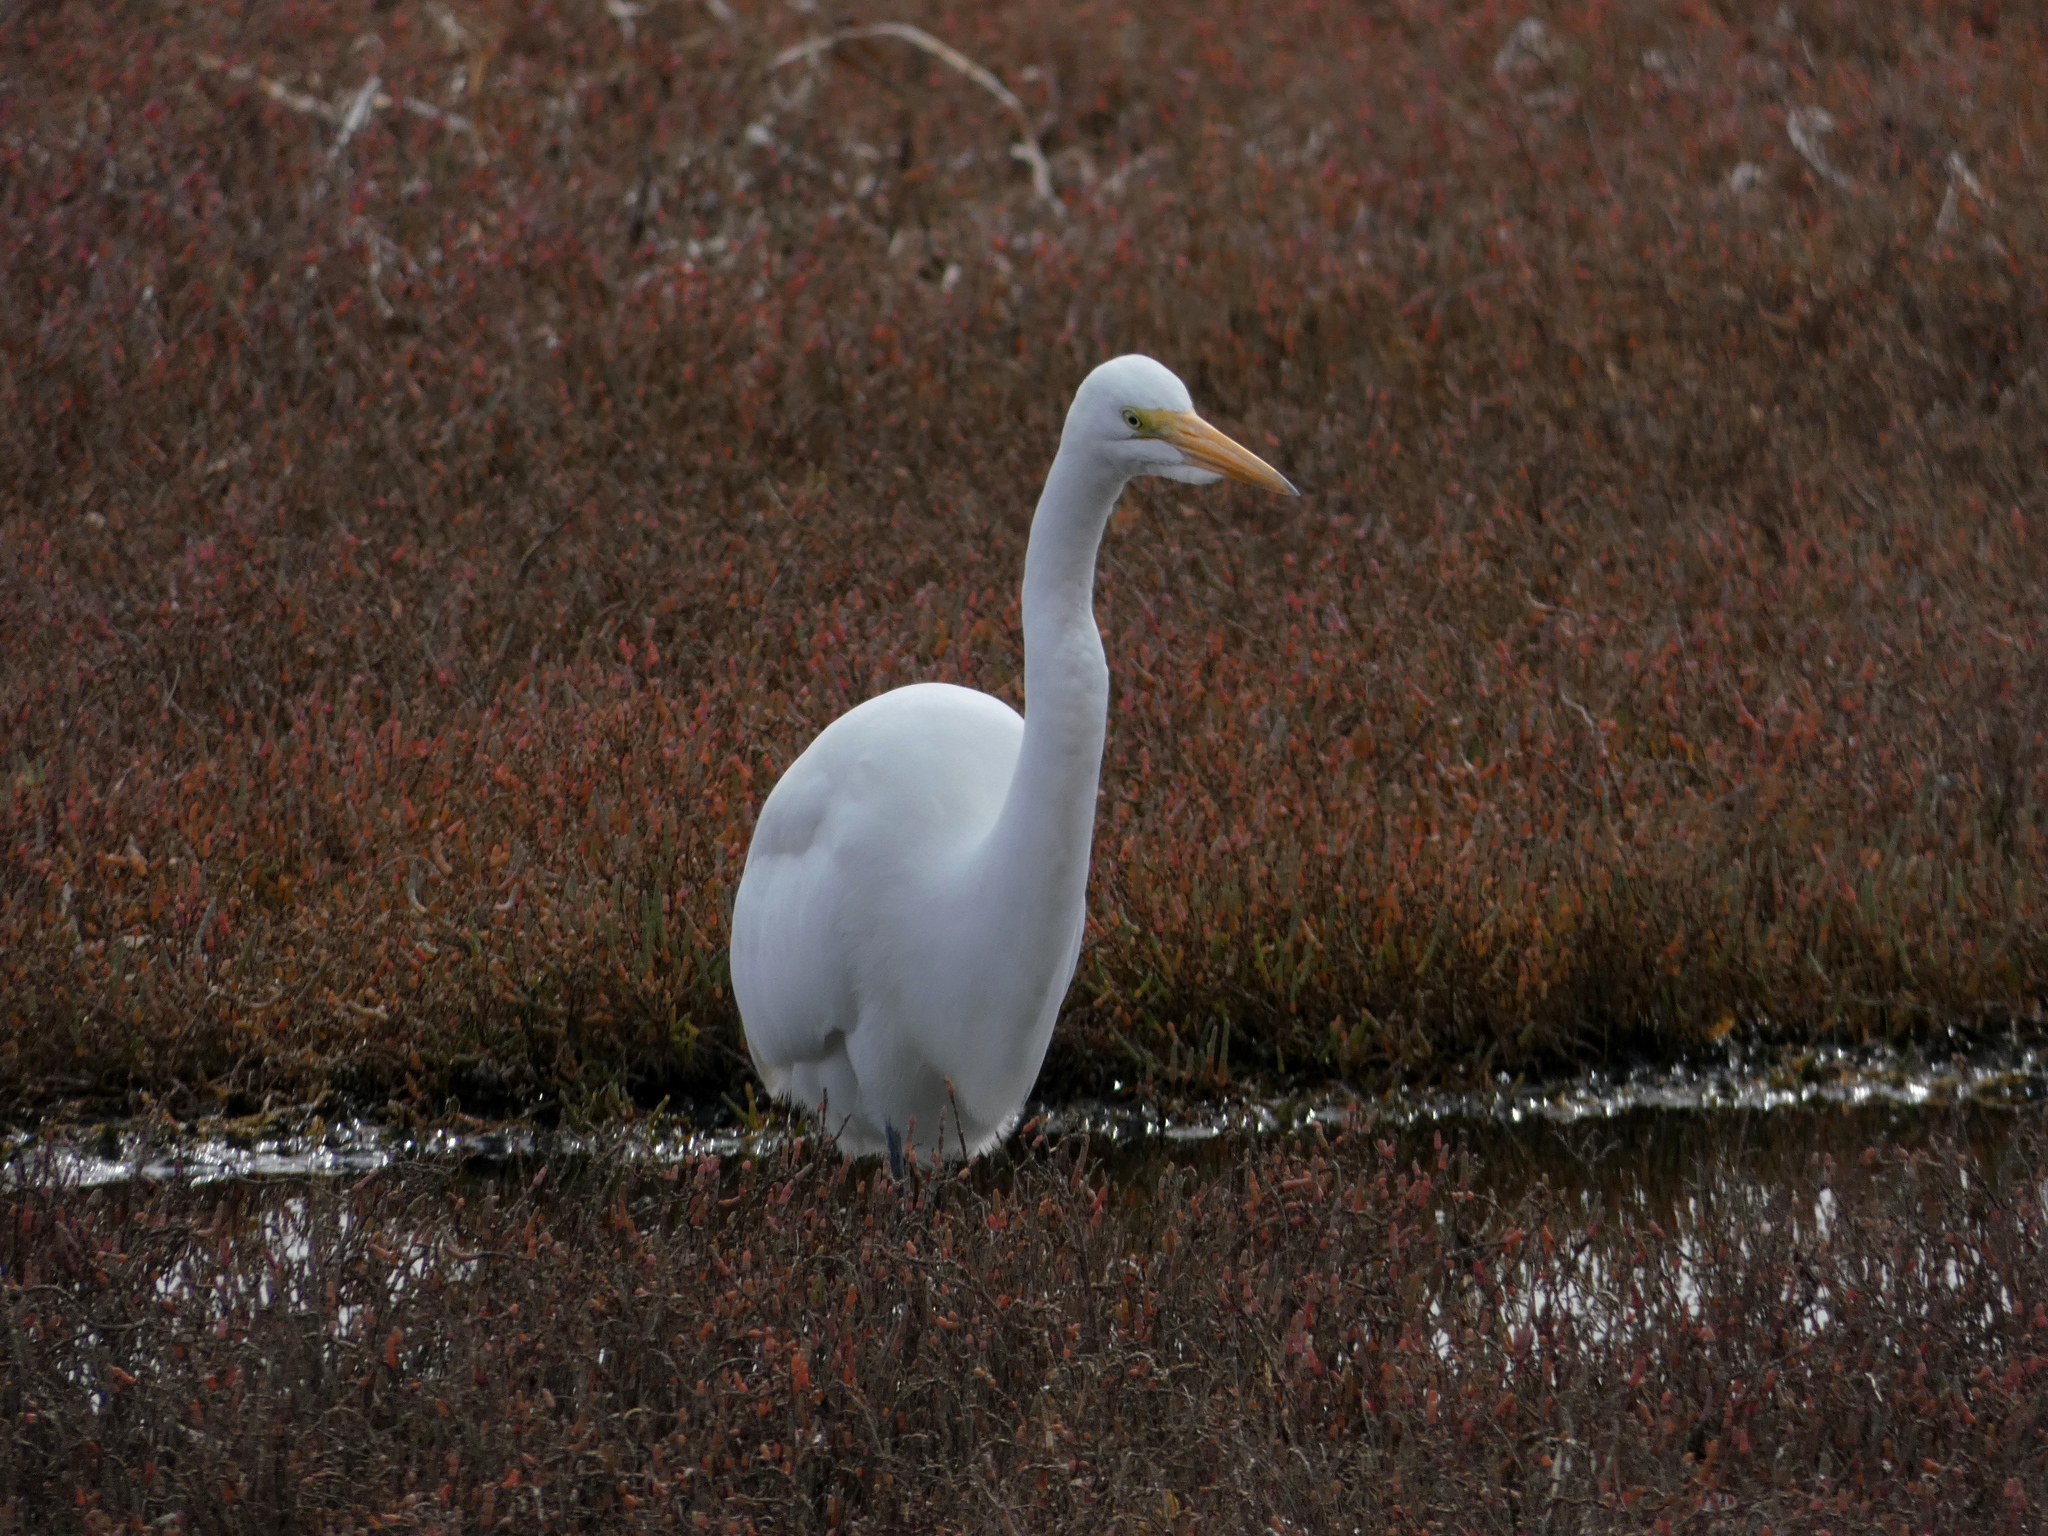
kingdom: Animalia
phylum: Chordata
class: Aves
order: Pelecaniformes
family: Ardeidae
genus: Ardea
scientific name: Ardea alba
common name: Great egret
